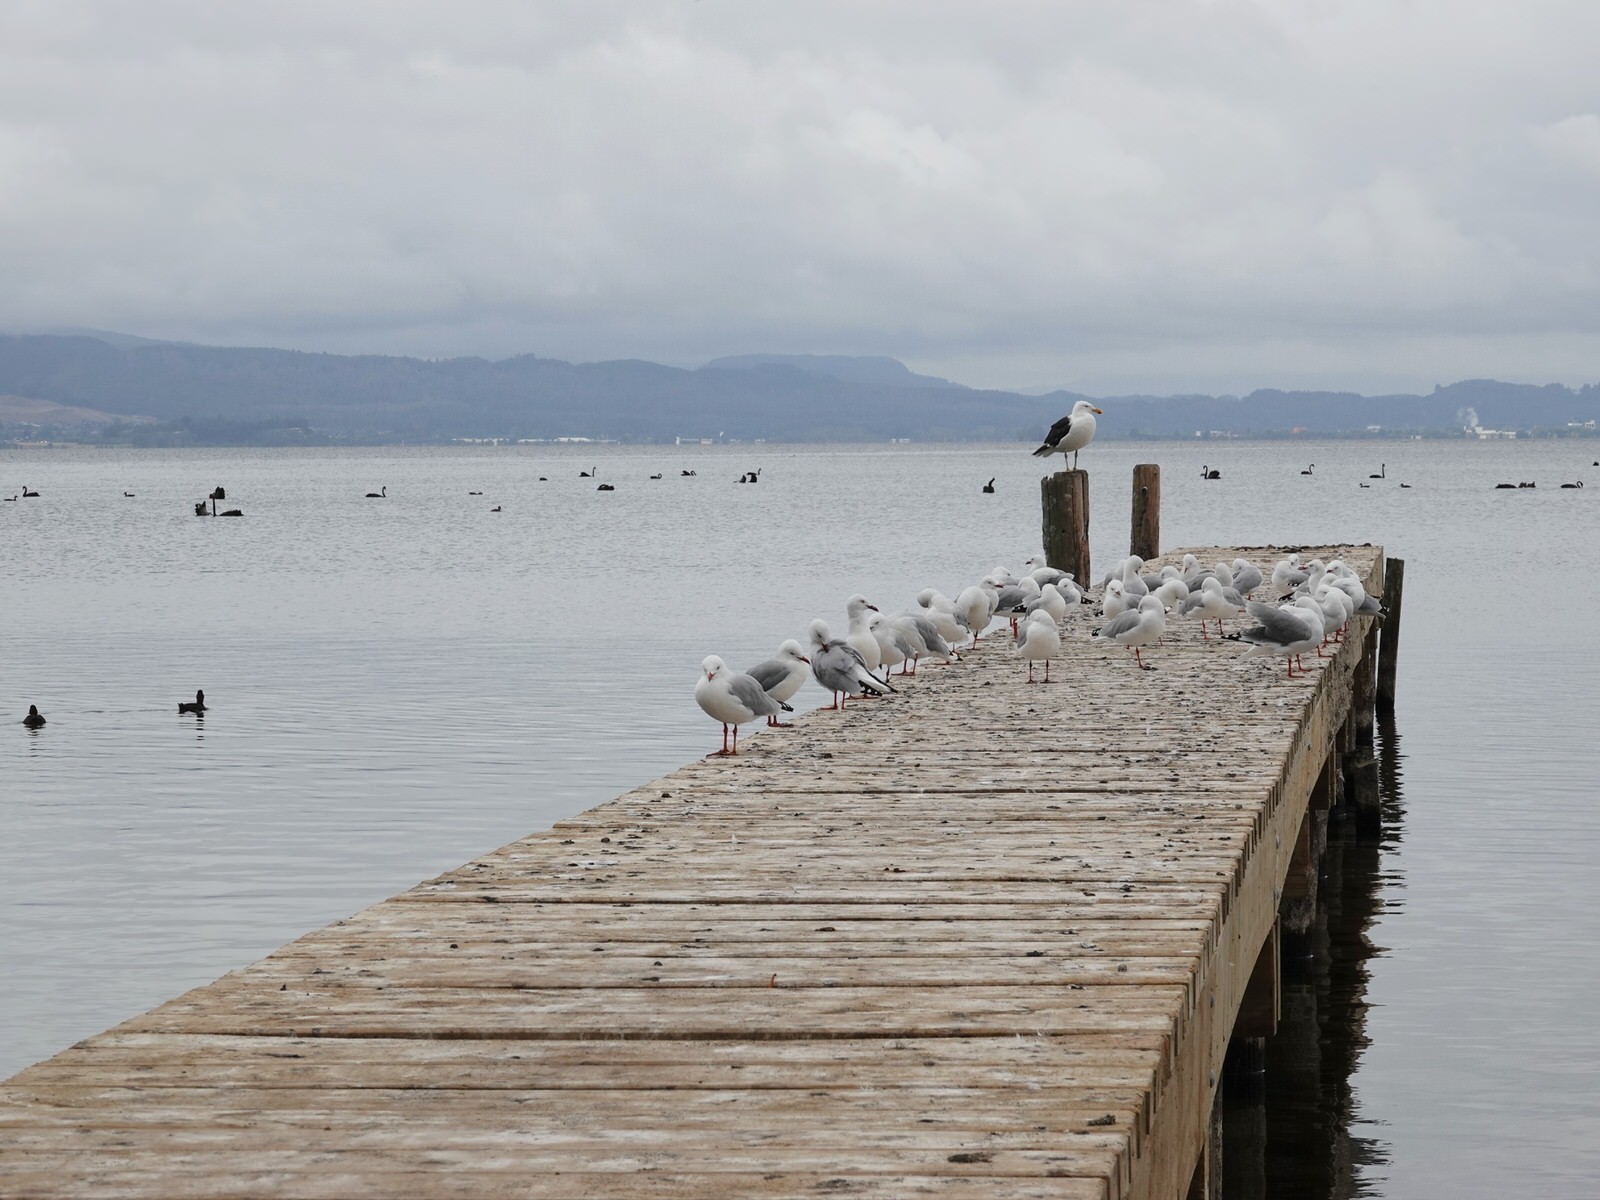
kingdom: Animalia
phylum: Chordata
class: Aves
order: Charadriiformes
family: Laridae
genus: Larus
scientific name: Larus dominicanus
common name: Kelp gull
